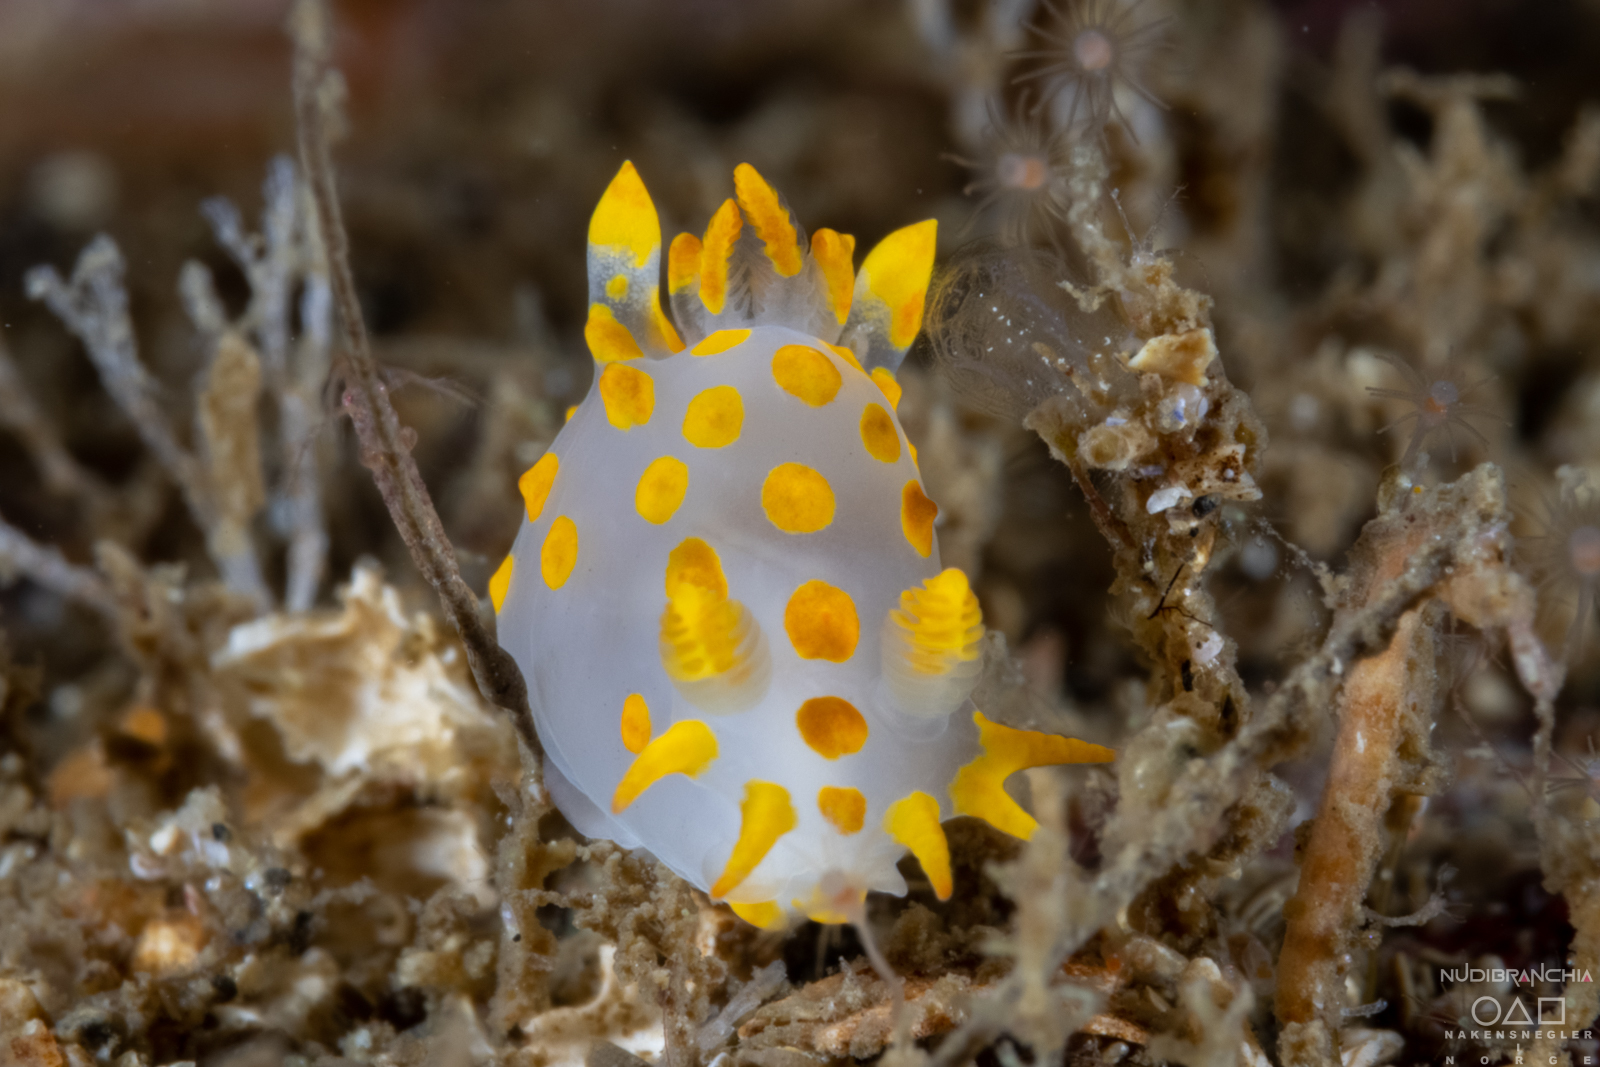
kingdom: Animalia
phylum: Mollusca
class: Gastropoda
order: Nudibranchia
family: Polyceridae
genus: Polycera
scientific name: Polycera quadrilineata
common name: Four-striped polycera
